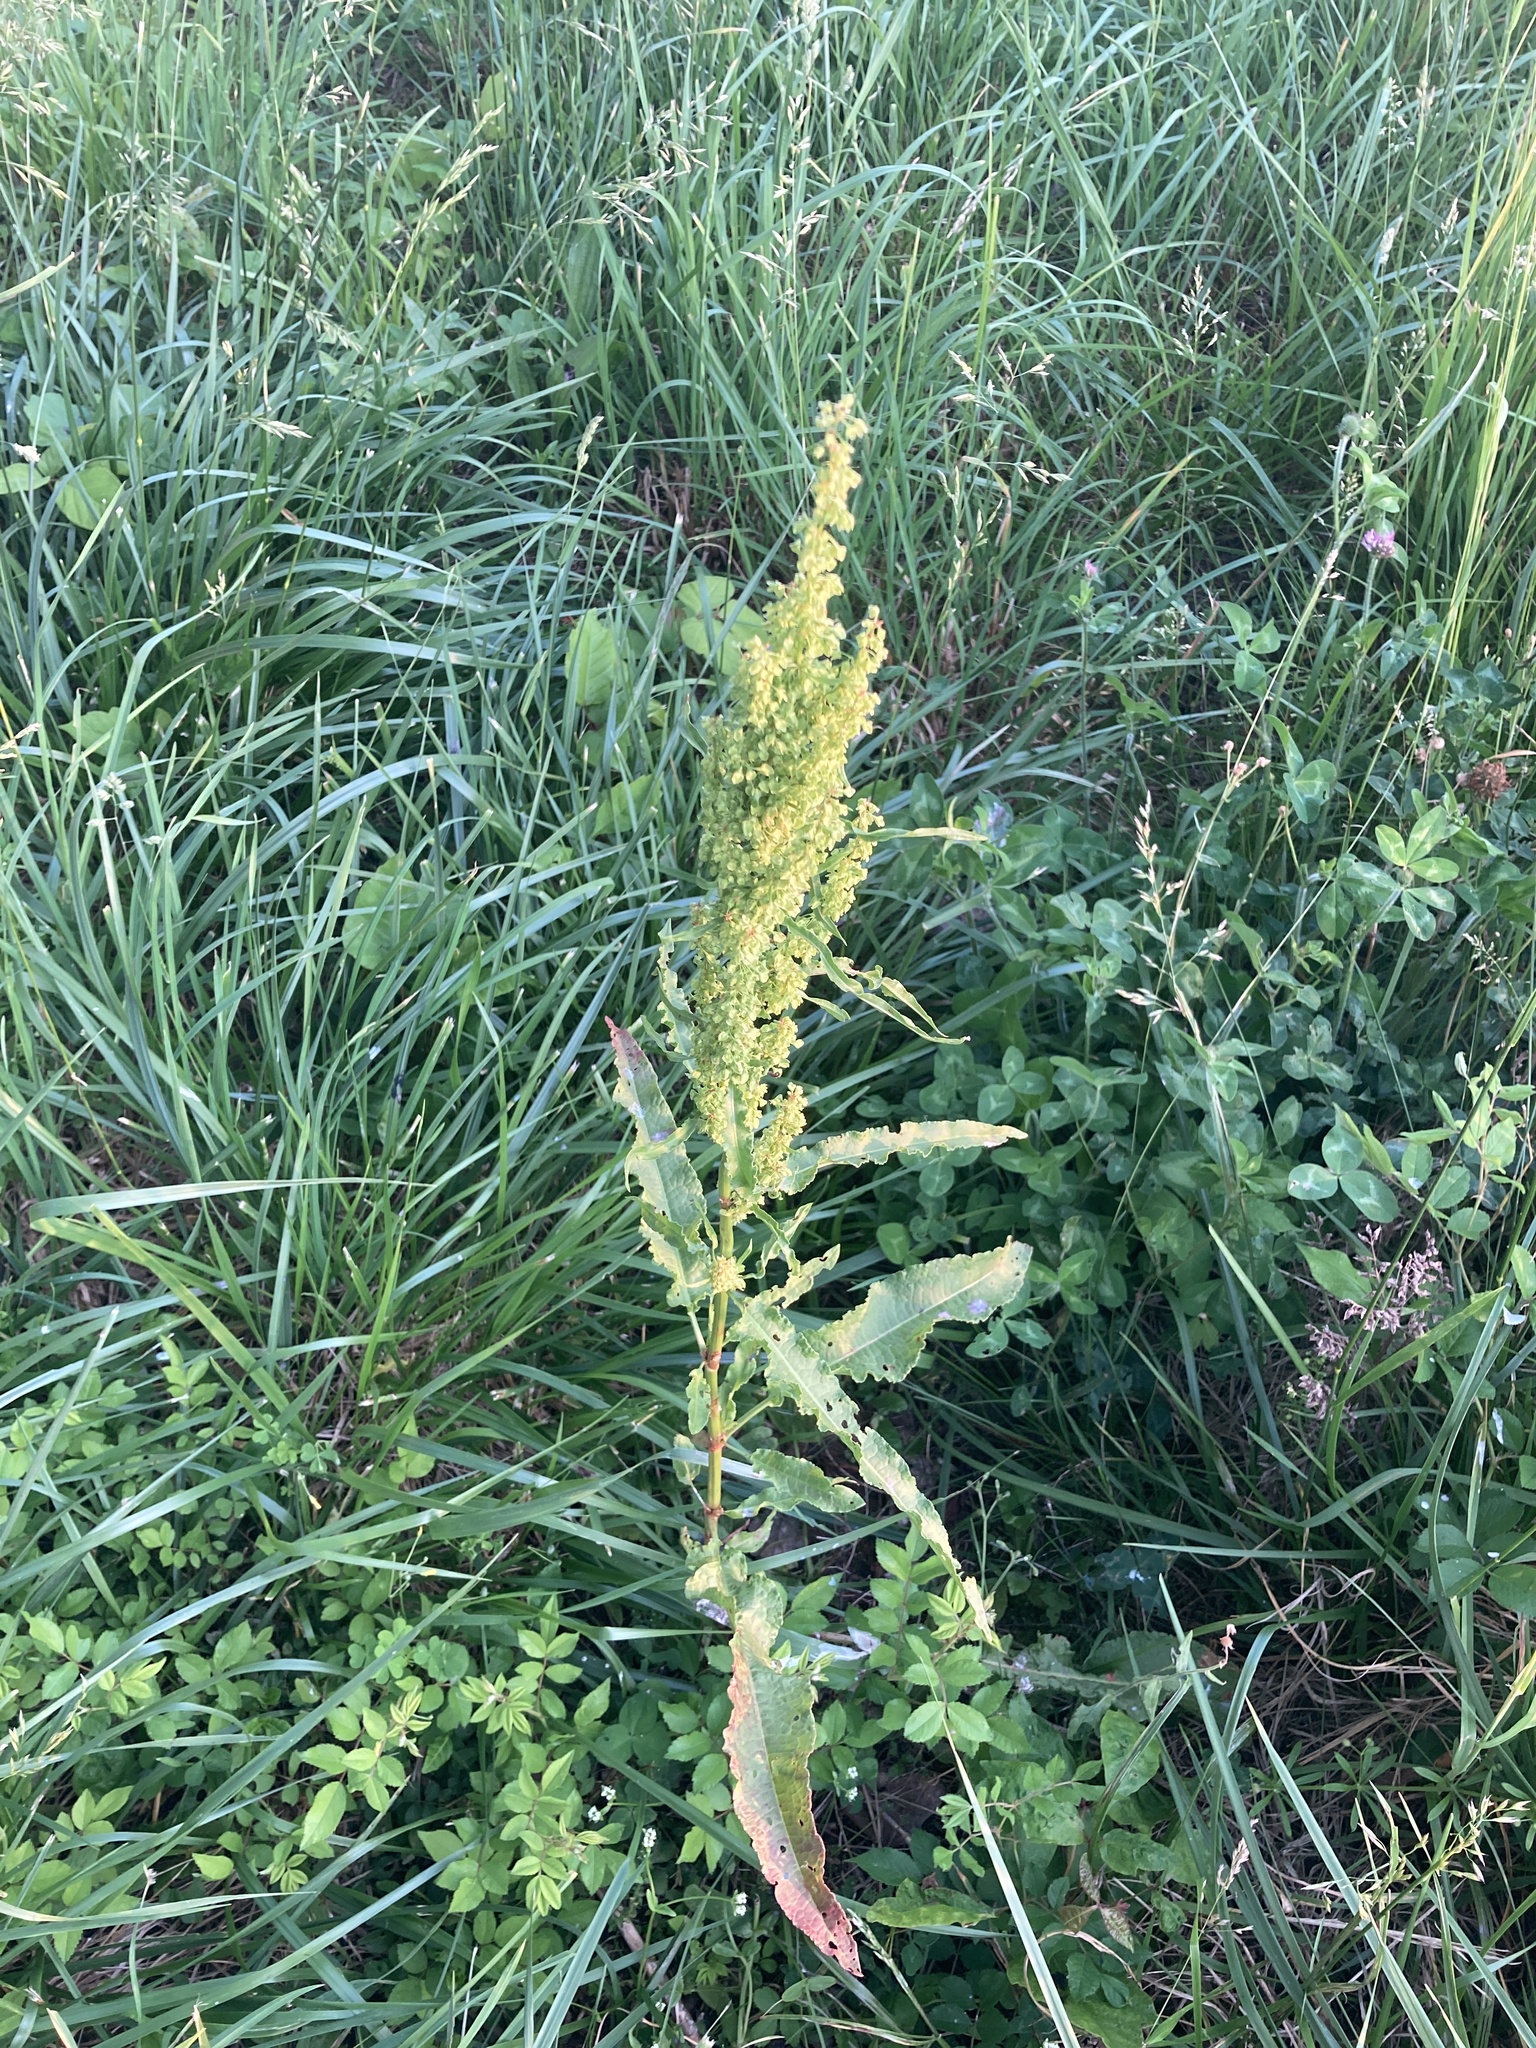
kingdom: Plantae
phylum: Tracheophyta
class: Magnoliopsida
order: Caryophyllales
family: Polygonaceae
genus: Rumex
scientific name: Rumex crispus
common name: Curled dock
